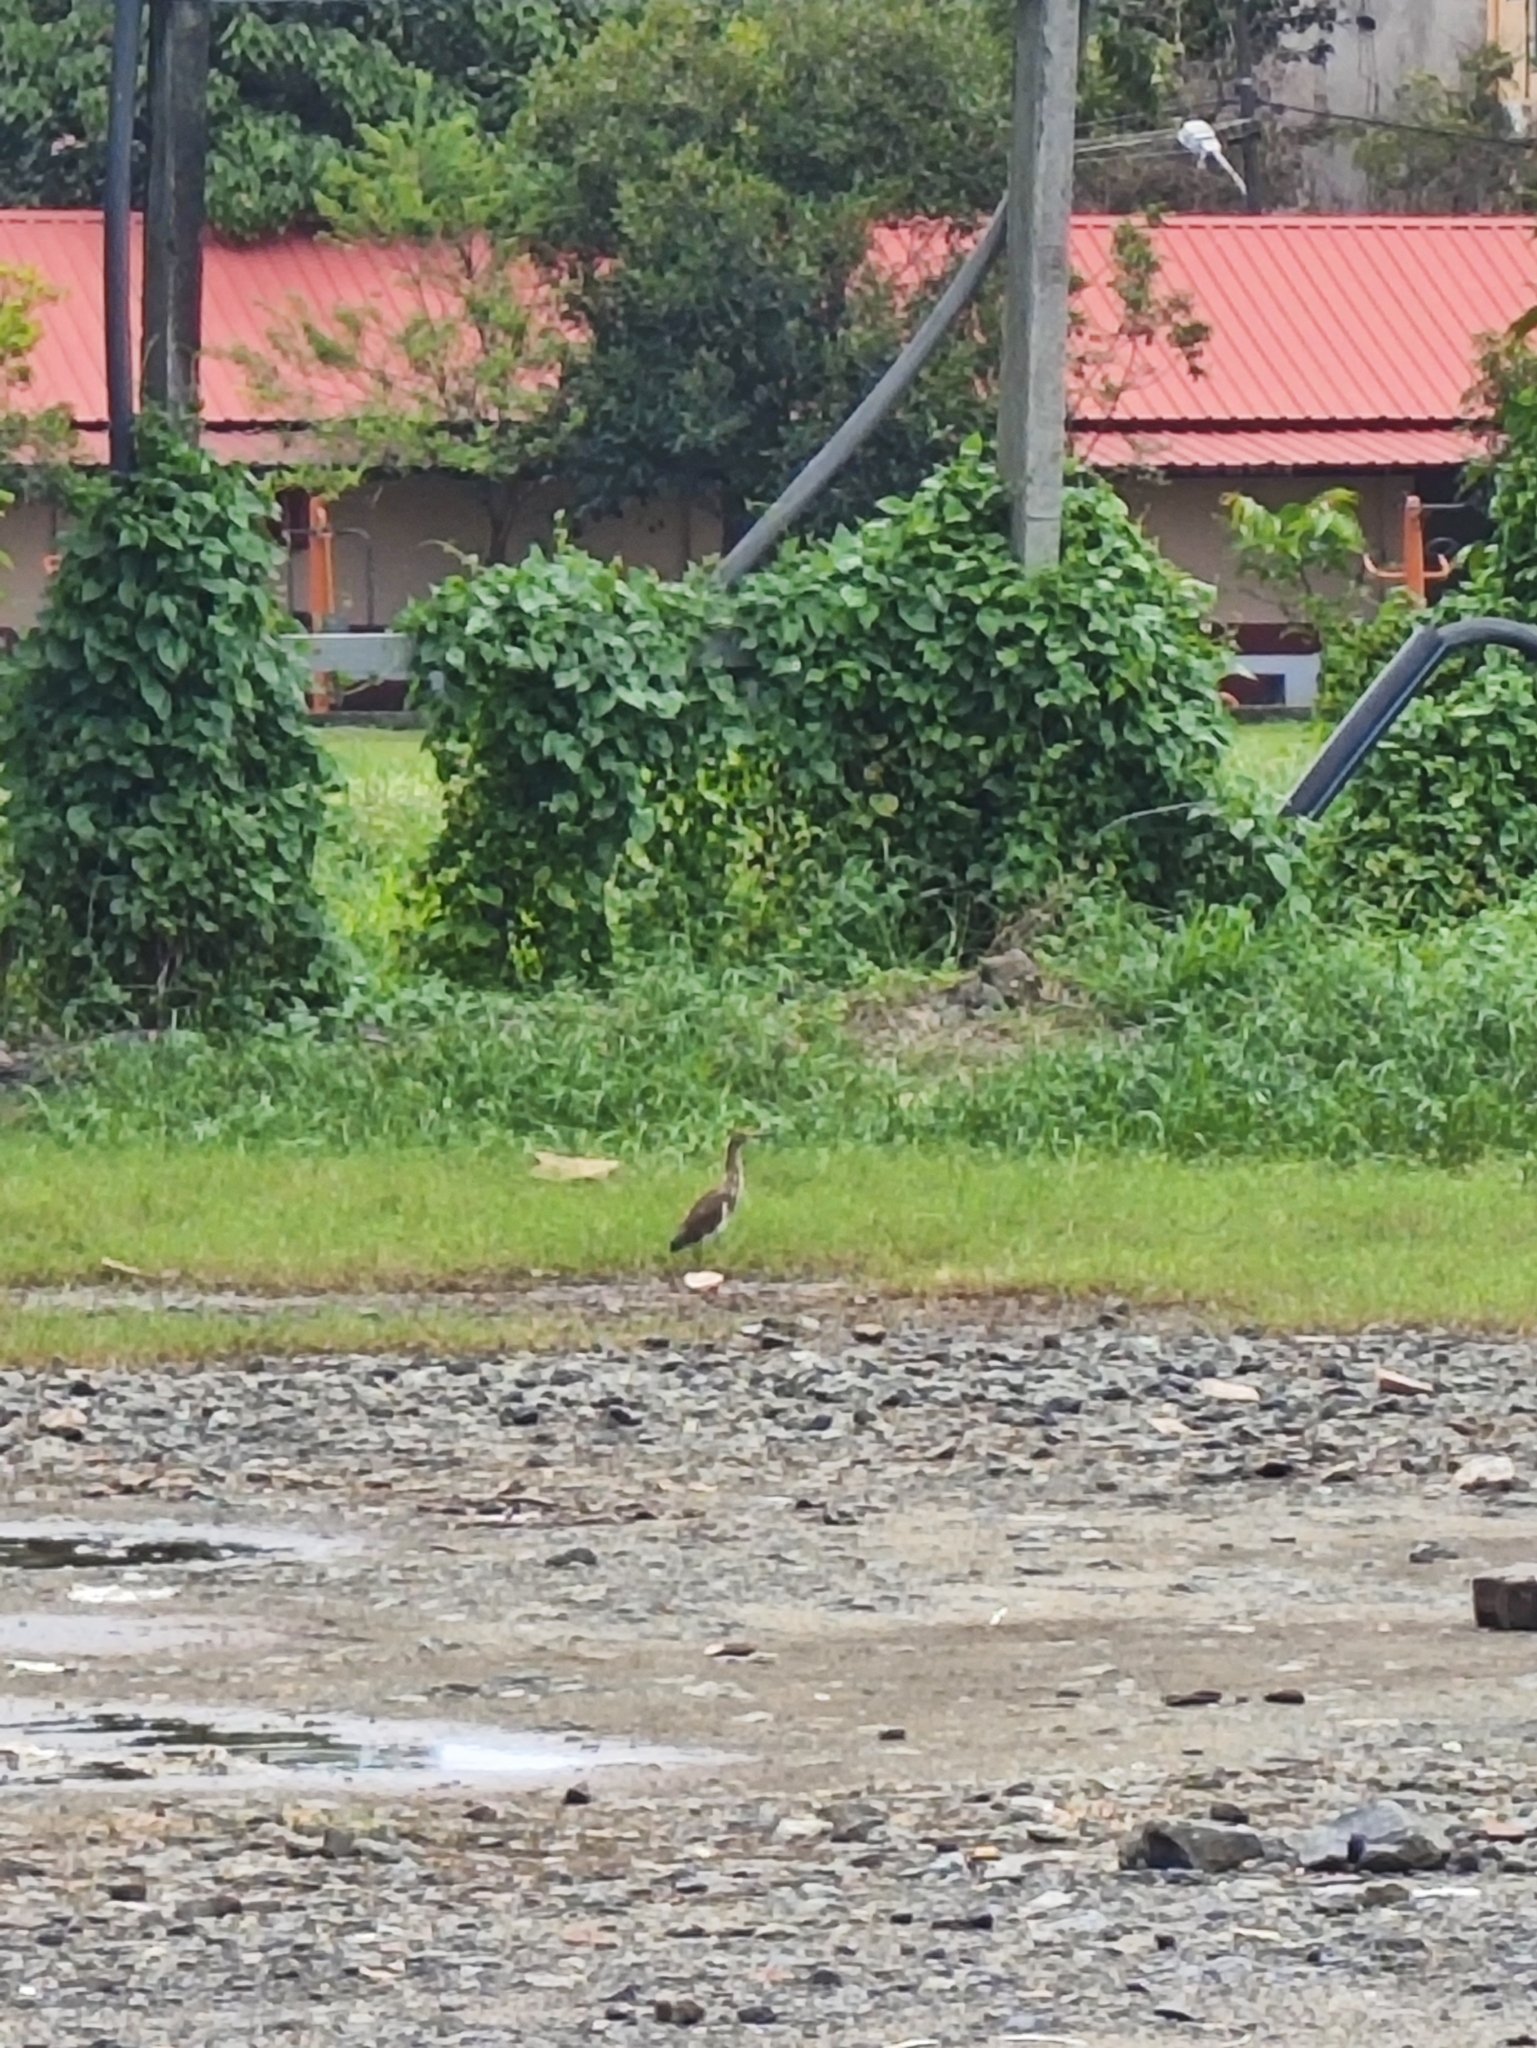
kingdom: Animalia
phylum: Chordata
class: Aves
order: Pelecaniformes
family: Ardeidae
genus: Ardeola
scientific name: Ardeola grayii
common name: Indian pond heron
